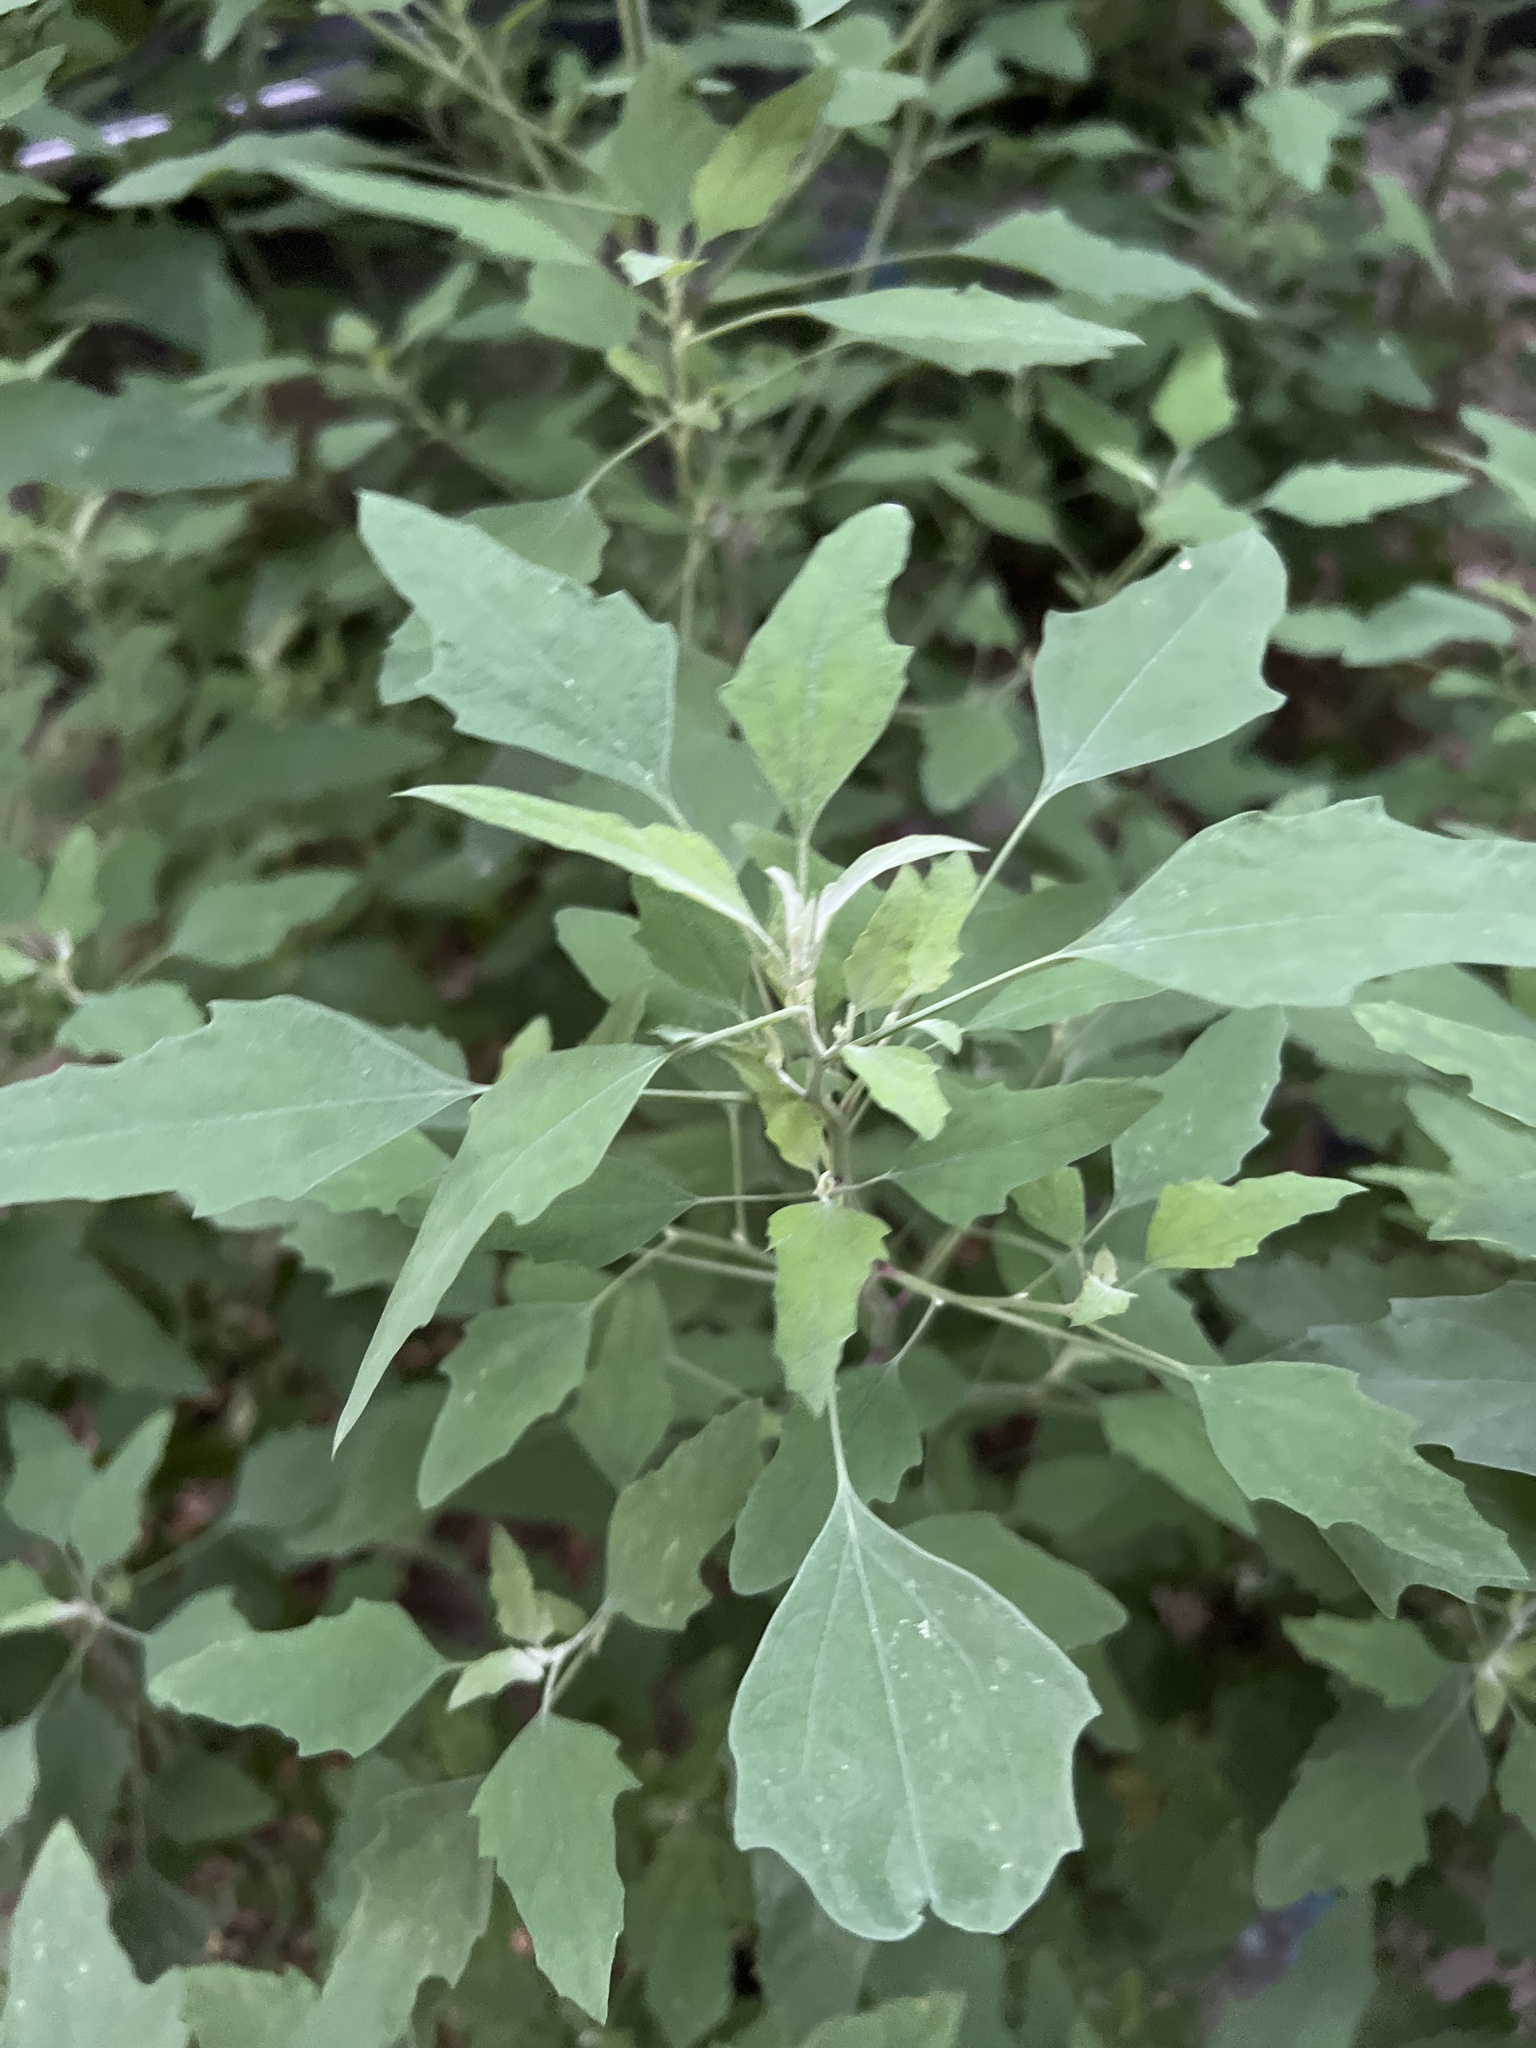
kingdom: Plantae
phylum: Tracheophyta
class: Magnoliopsida
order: Caryophyllales
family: Amaranthaceae
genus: Chenopodium
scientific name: Chenopodium album
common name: Fat-hen
